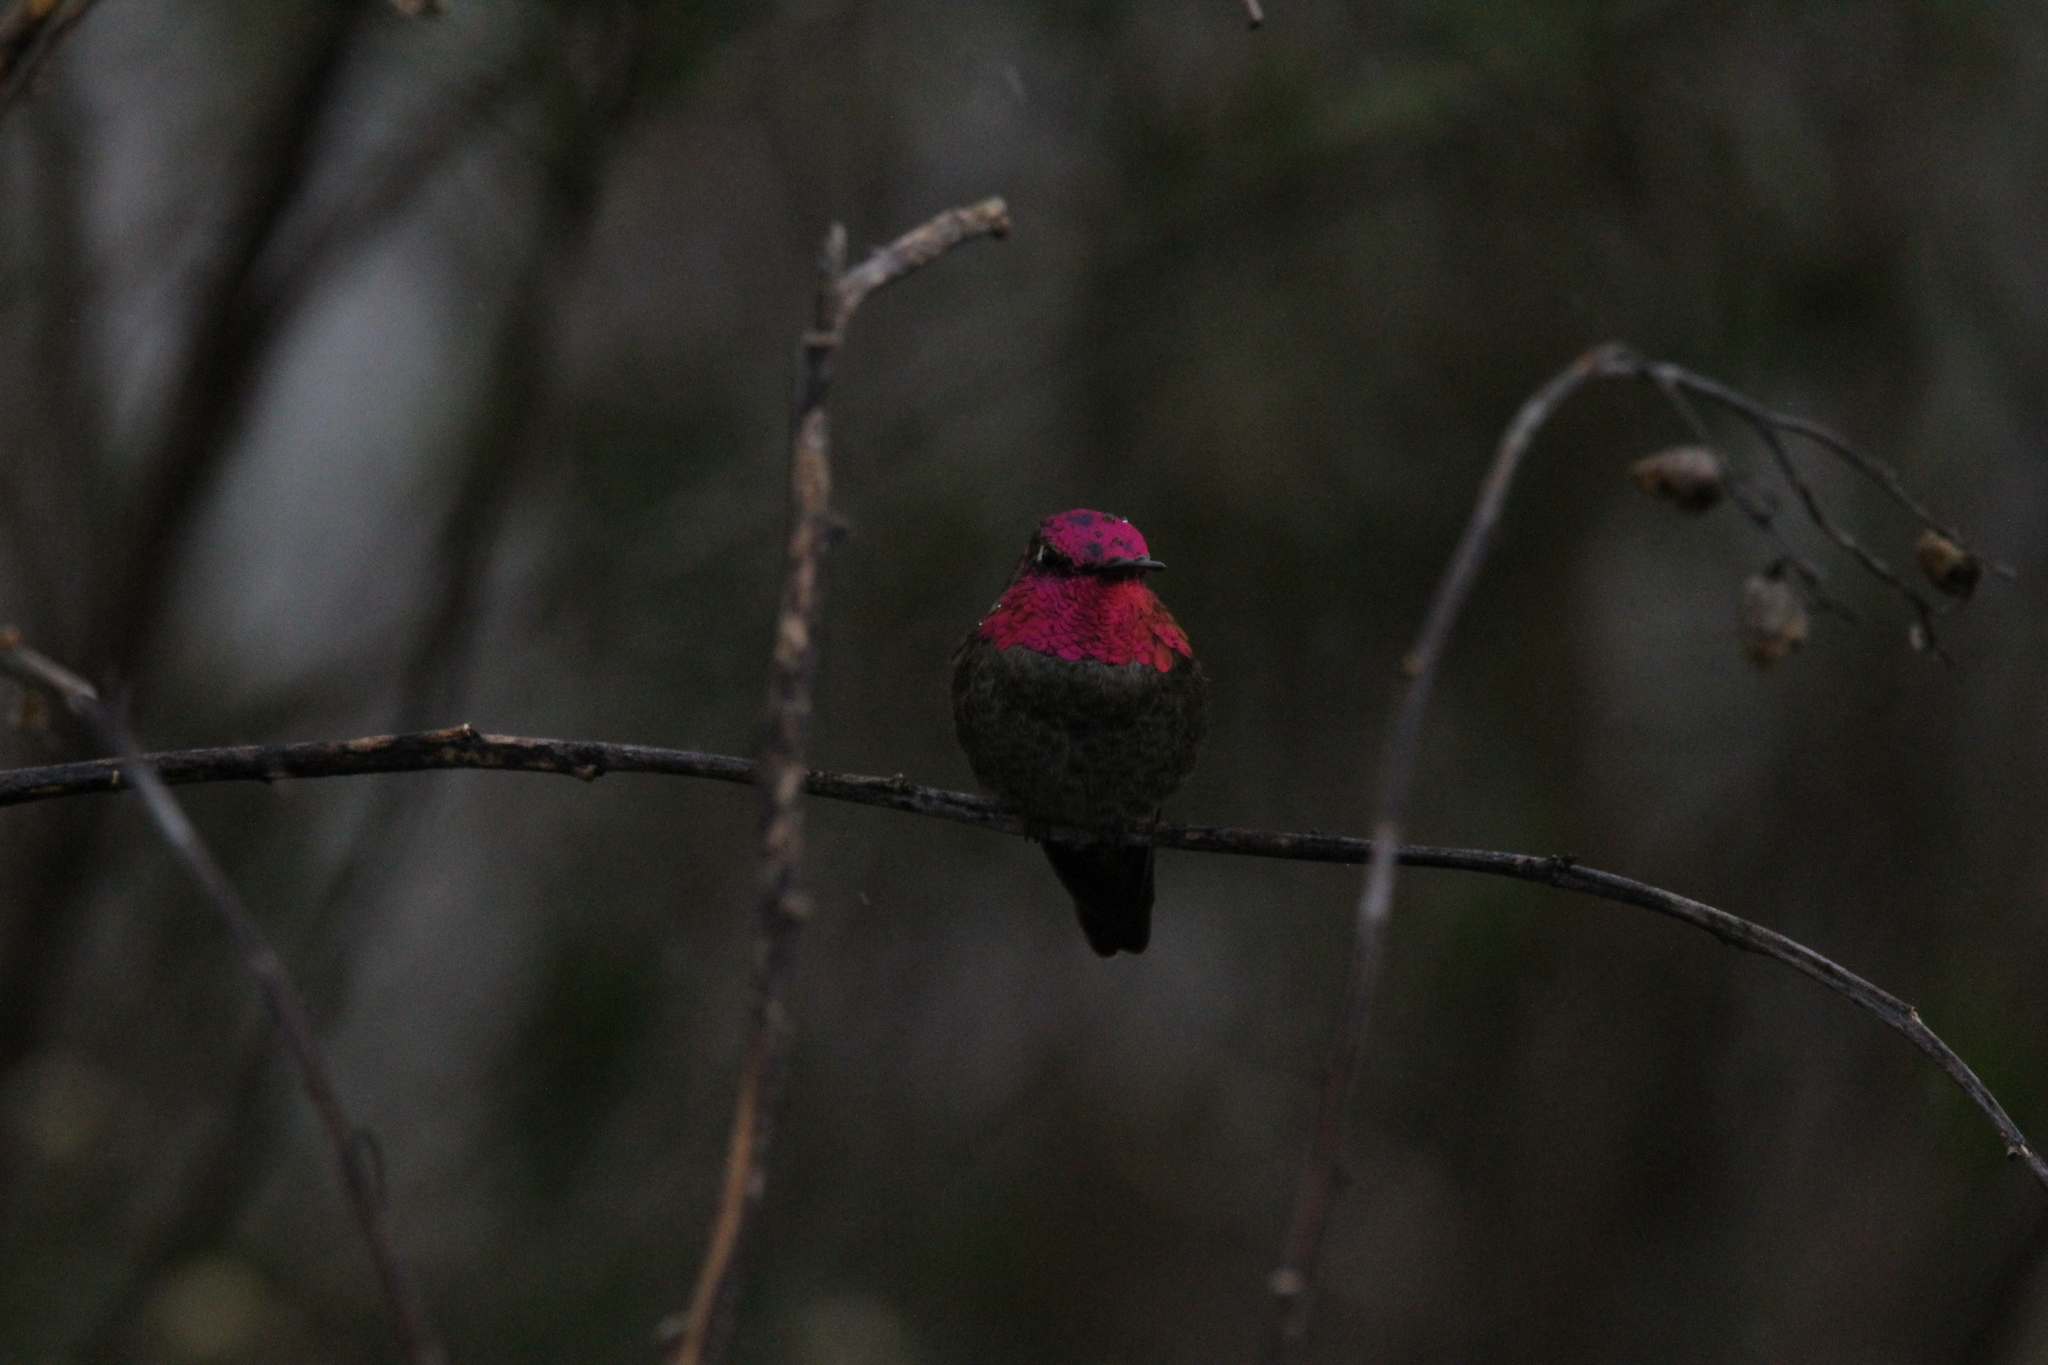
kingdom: Animalia
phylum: Chordata
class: Aves
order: Apodiformes
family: Trochilidae
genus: Calypte
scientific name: Calypte anna
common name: Anna's hummingbird
